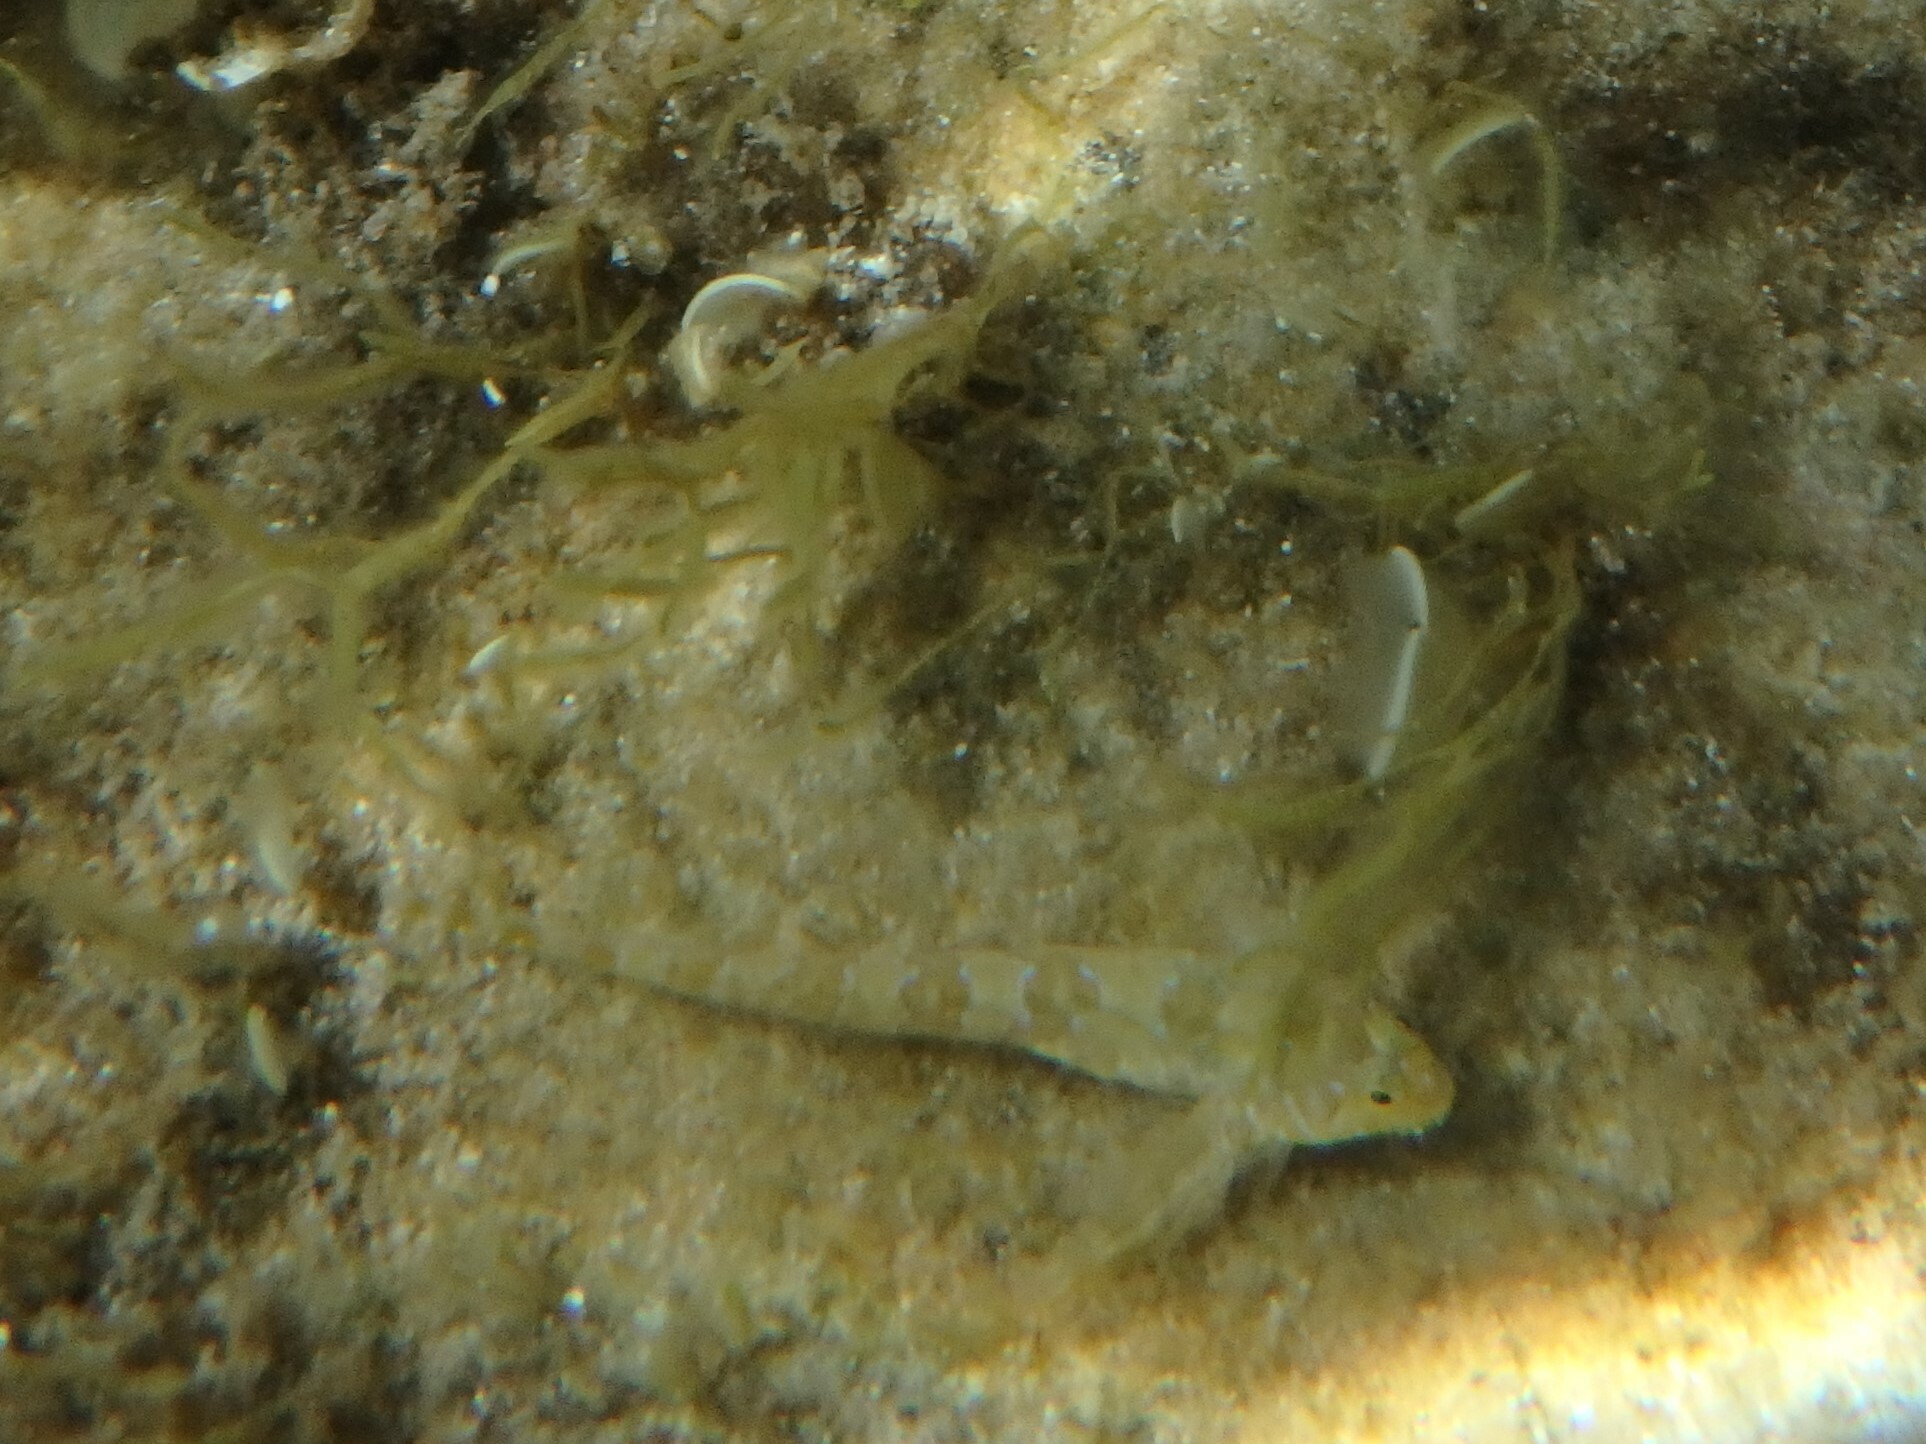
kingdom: Animalia
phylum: Chordata
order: Perciformes
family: Blenniidae
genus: Aidablennius
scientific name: Aidablennius sphynx
